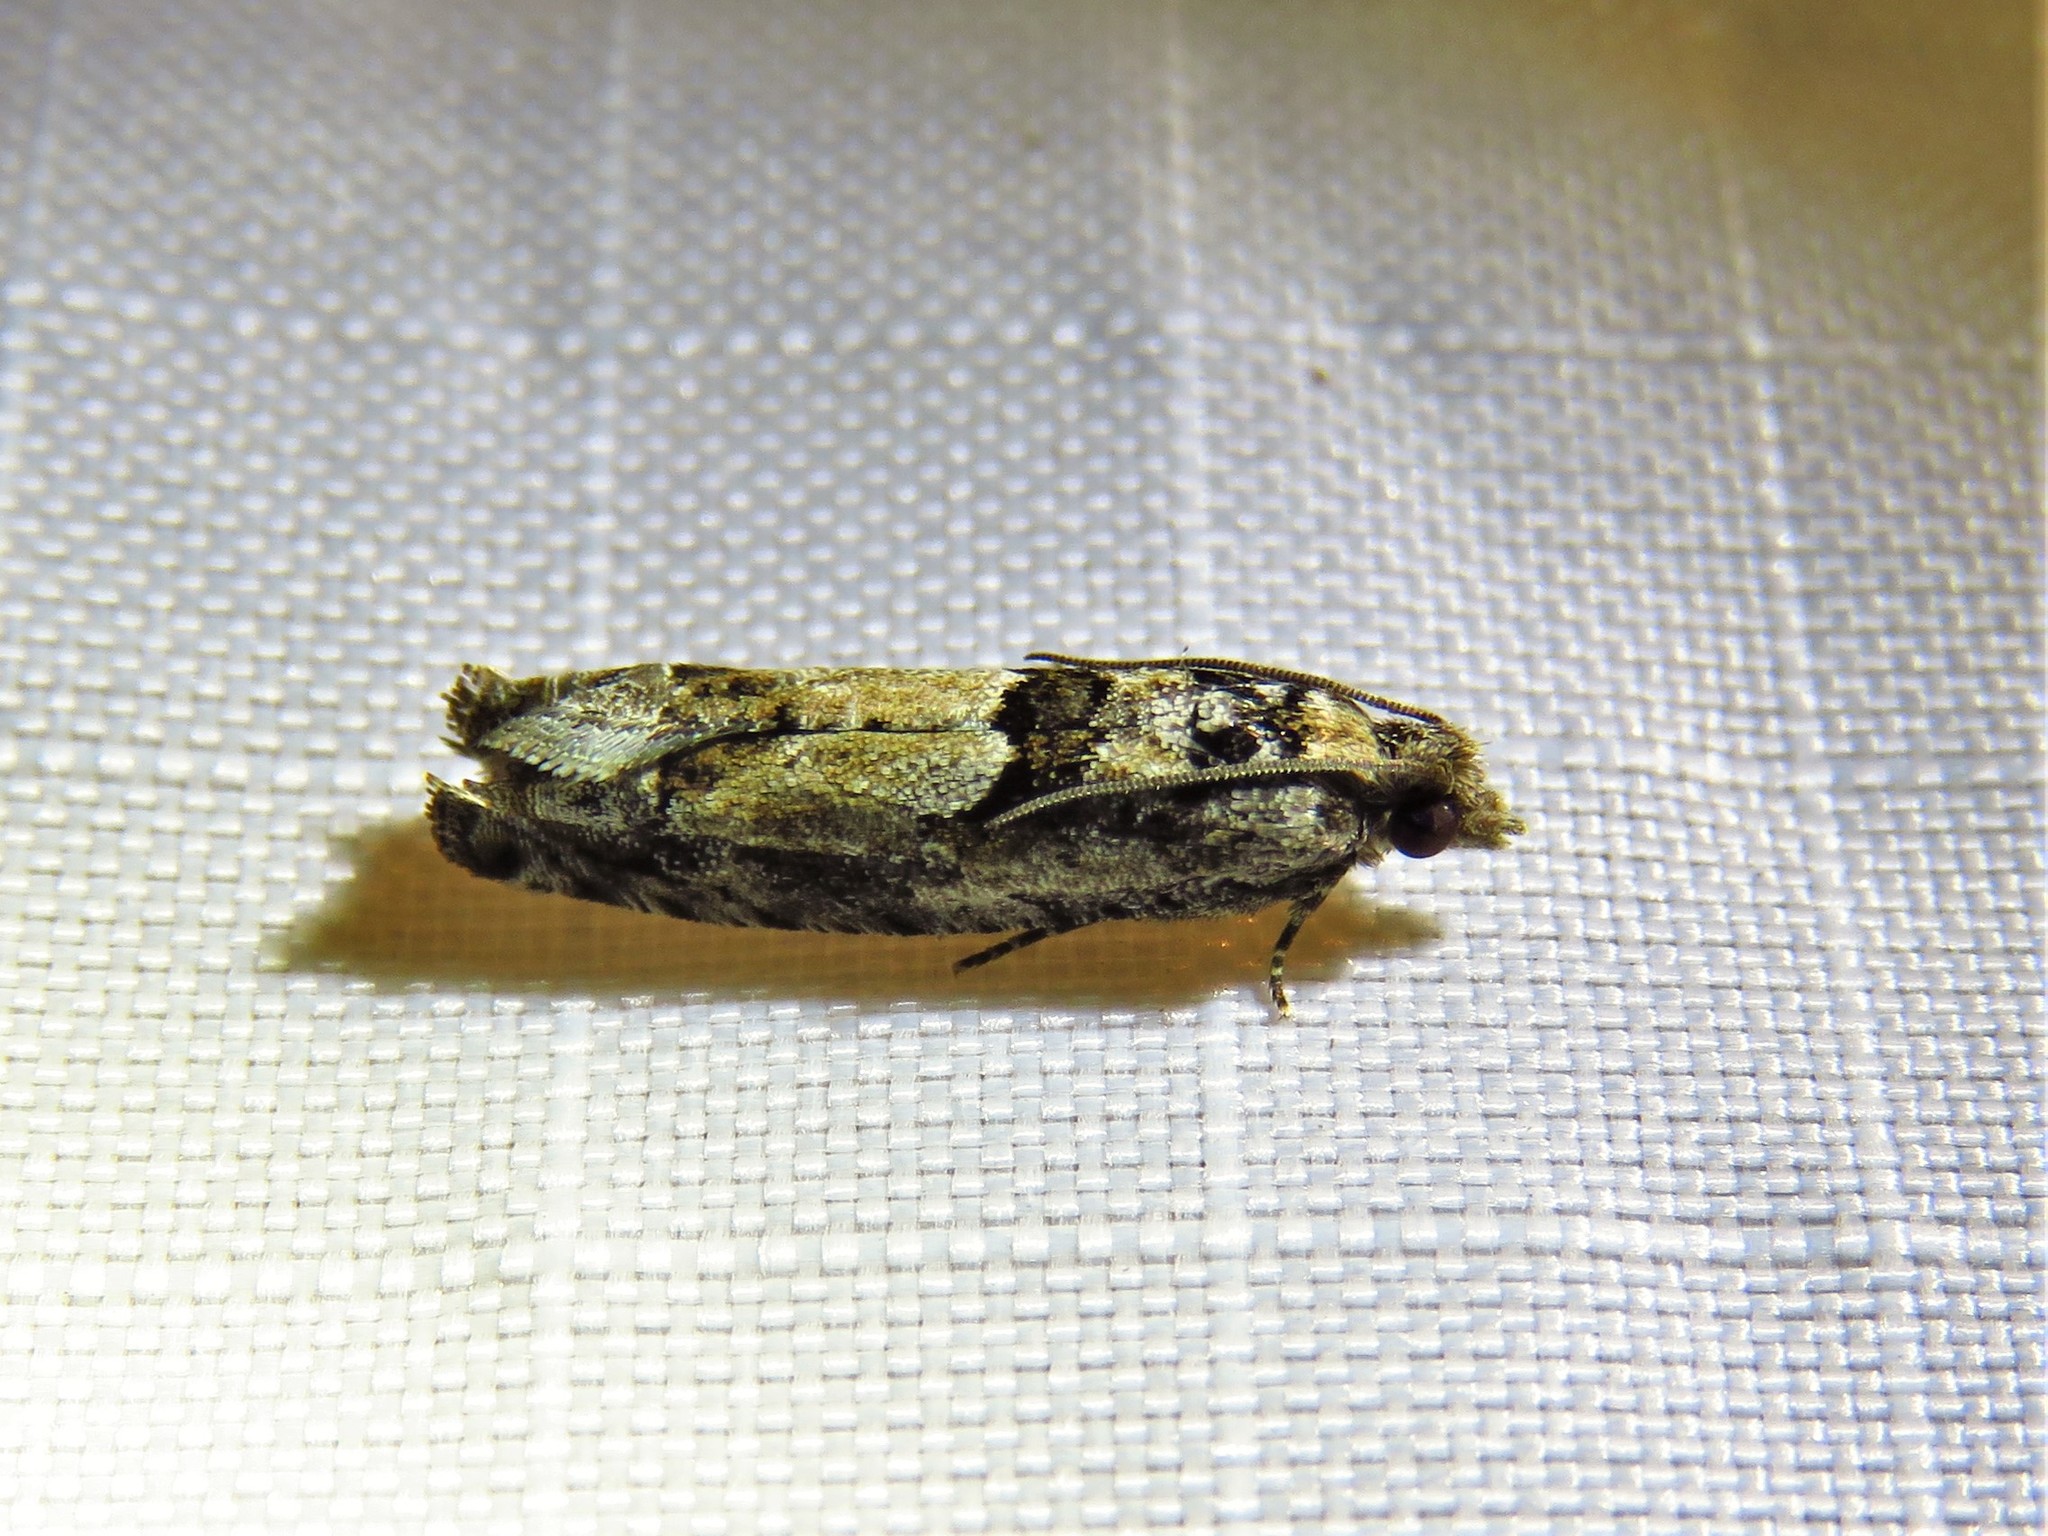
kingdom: Animalia
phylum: Arthropoda
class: Insecta
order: Lepidoptera
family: Tortricidae
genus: Pseudexentera
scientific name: Pseudexentera hodsoni
